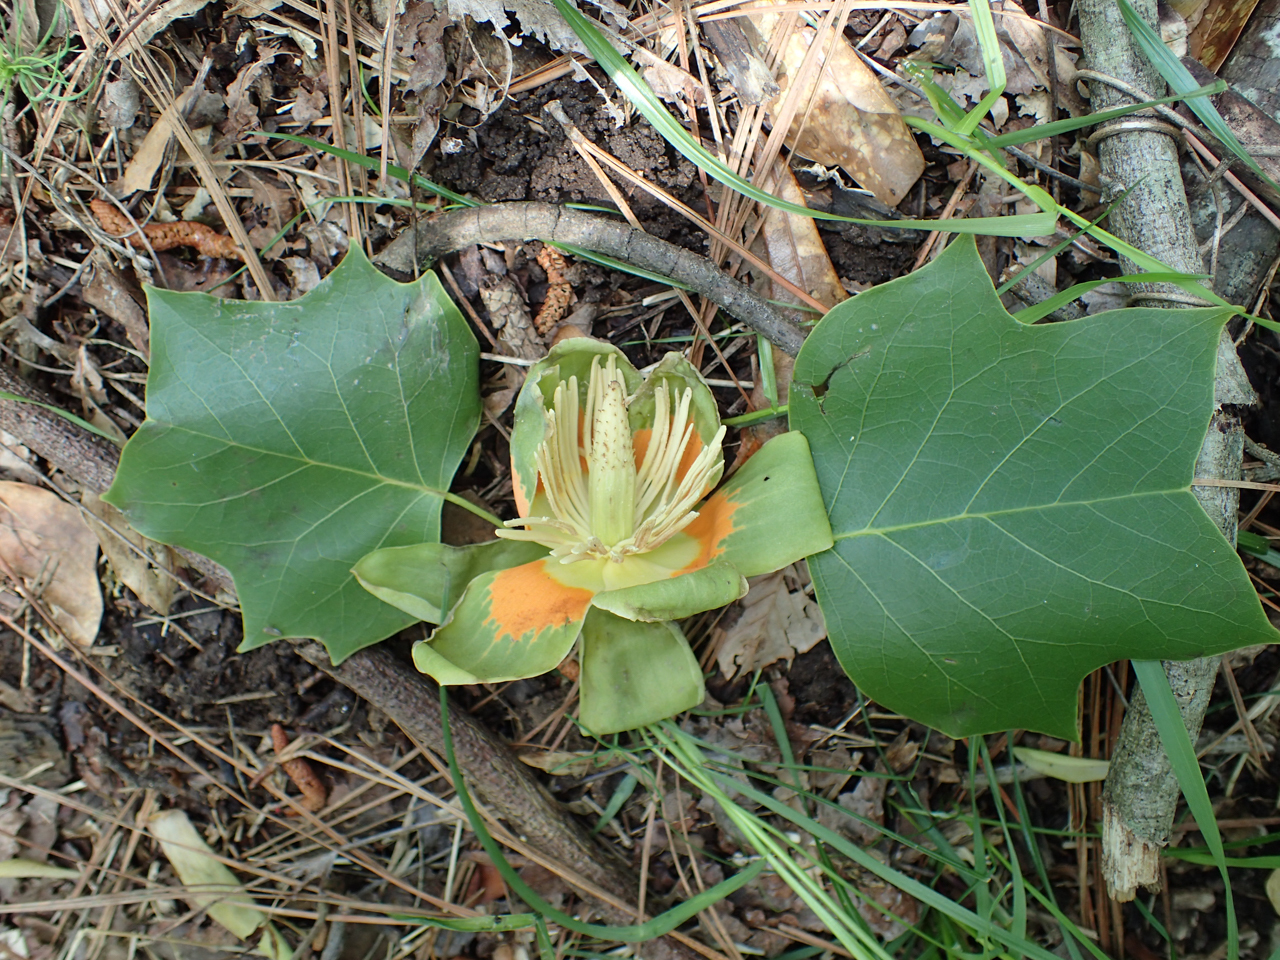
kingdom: Plantae
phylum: Tracheophyta
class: Magnoliopsida
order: Magnoliales
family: Magnoliaceae
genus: Liriodendron
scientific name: Liriodendron tulipifera
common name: Tulip tree
